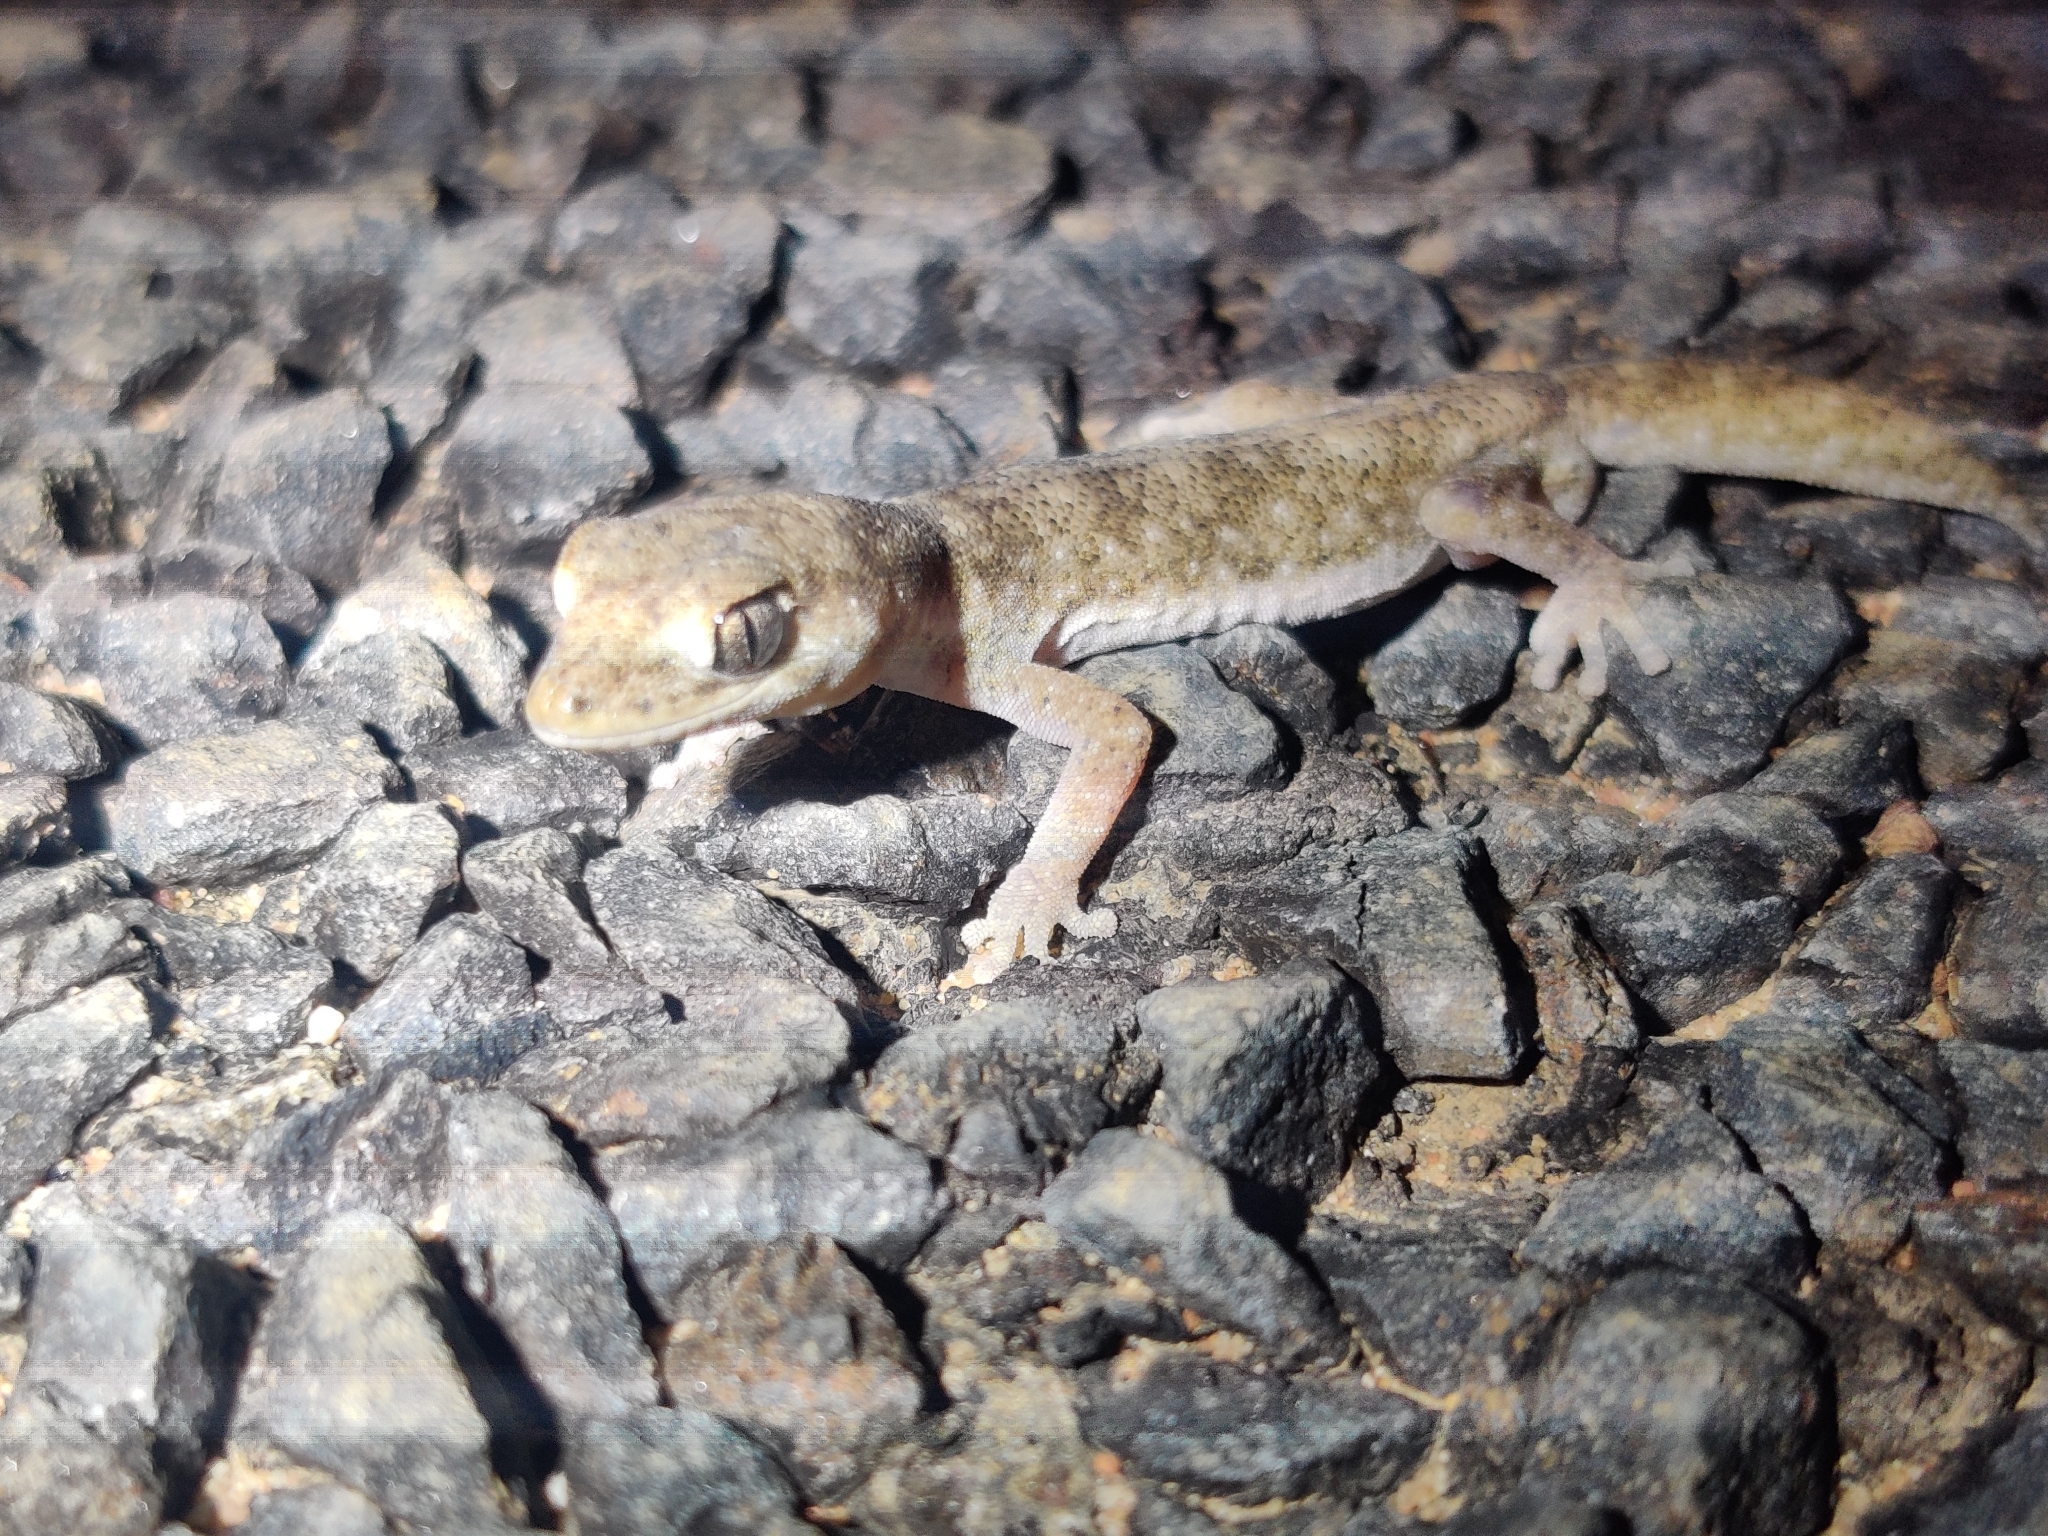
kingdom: Animalia
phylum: Chordata
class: Squamata
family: Diplodactylidae
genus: Diplodactylus
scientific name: Diplodactylus tessellatus
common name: Tesselated gecko
